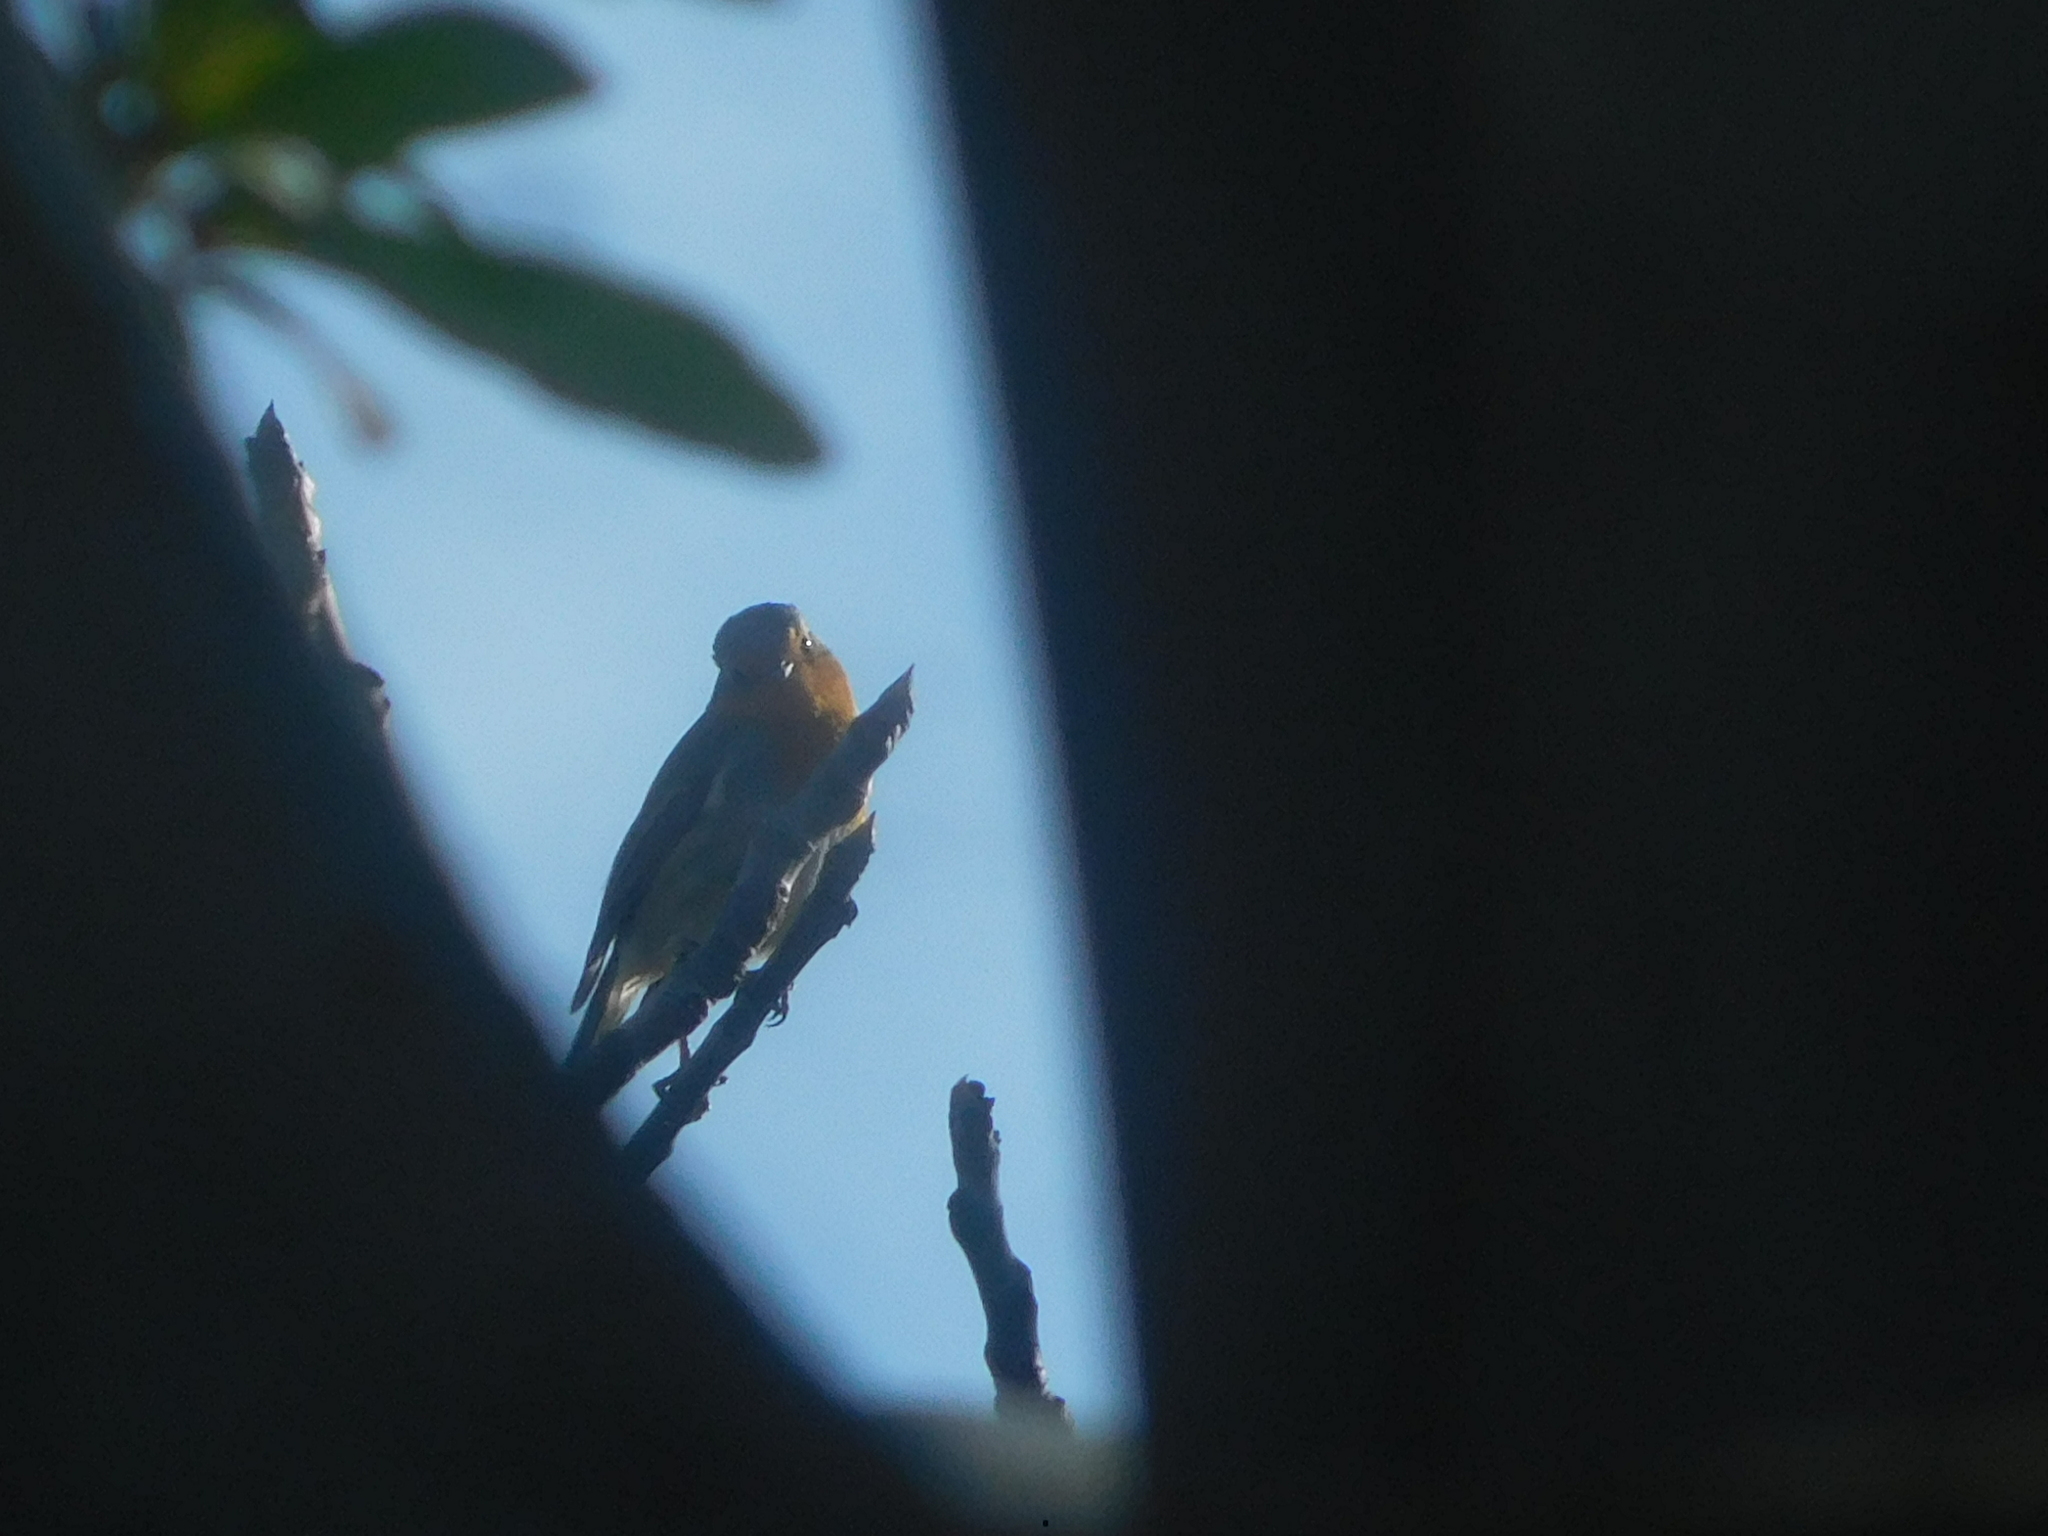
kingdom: Animalia
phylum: Chordata
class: Aves
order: Passeriformes
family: Muscicapidae
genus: Erithacus
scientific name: Erithacus rubecula
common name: European robin
